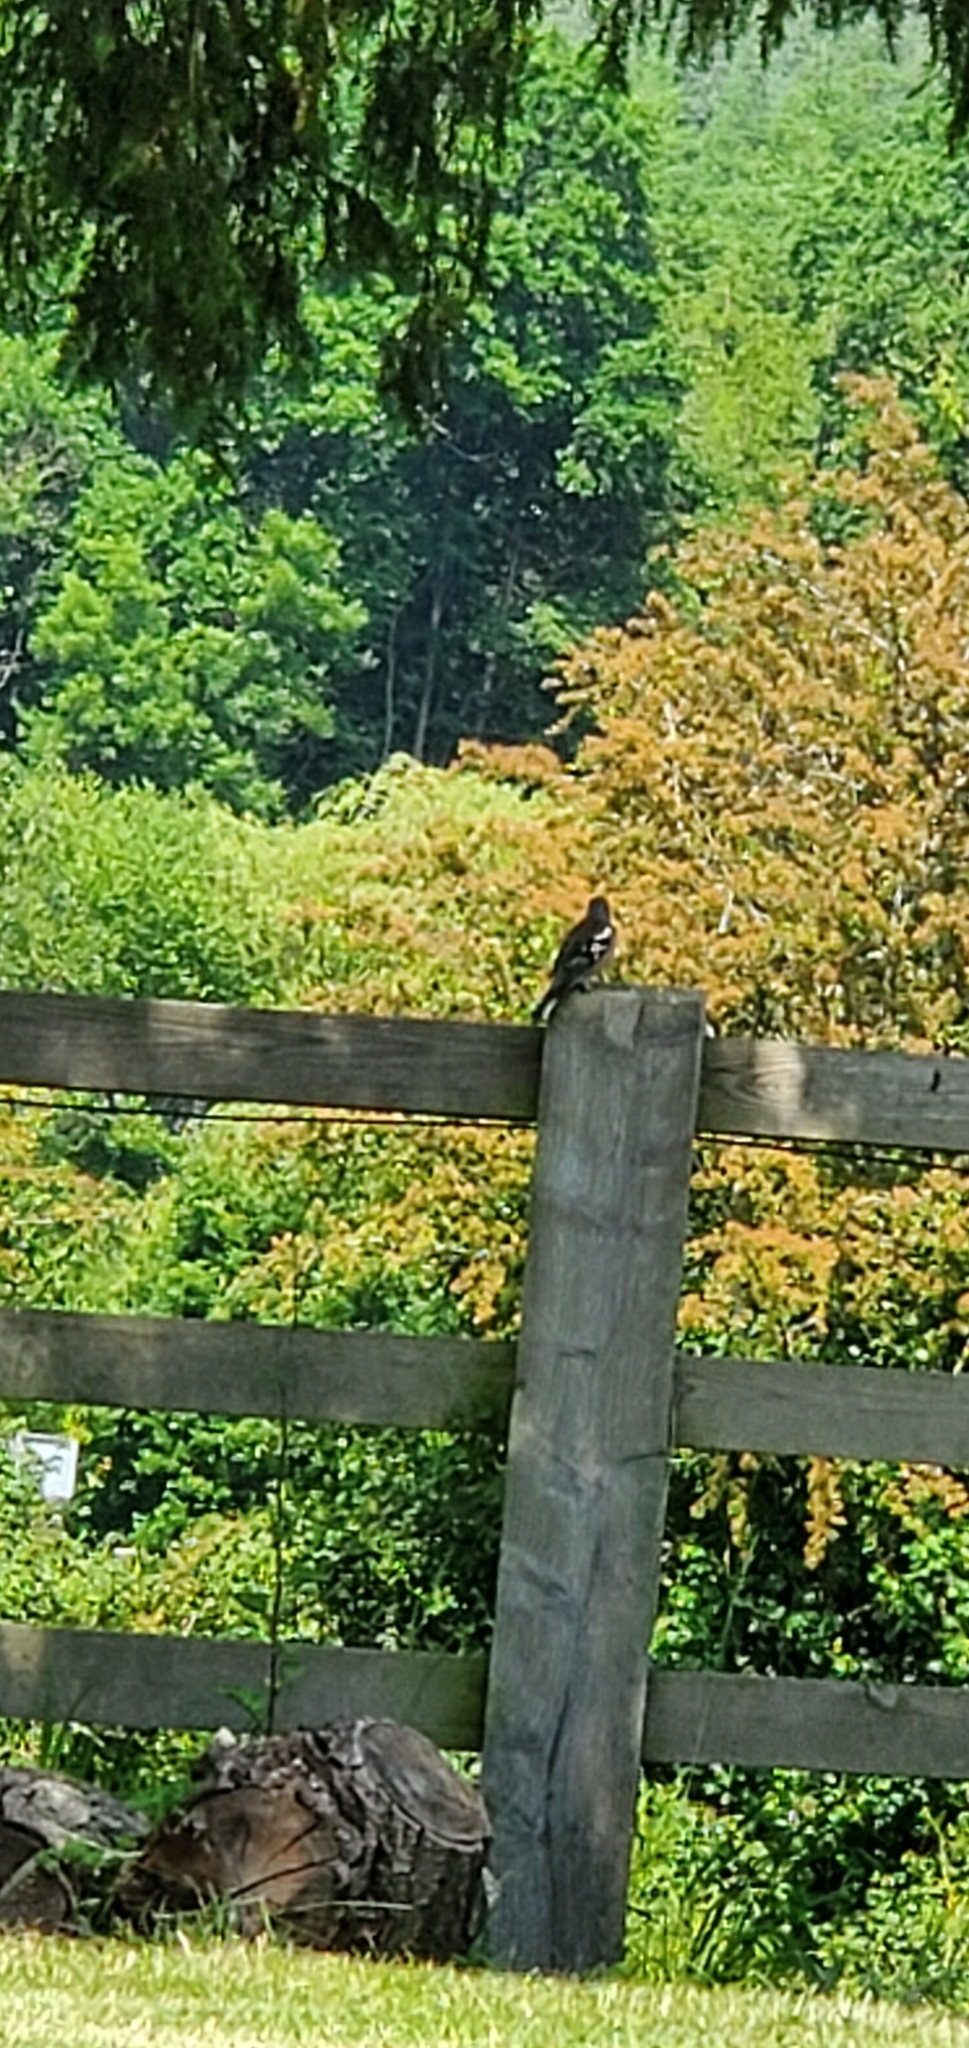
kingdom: Animalia
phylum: Chordata
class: Aves
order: Passeriformes
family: Fringillidae
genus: Fringilla
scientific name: Fringilla coelebs
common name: Common chaffinch
